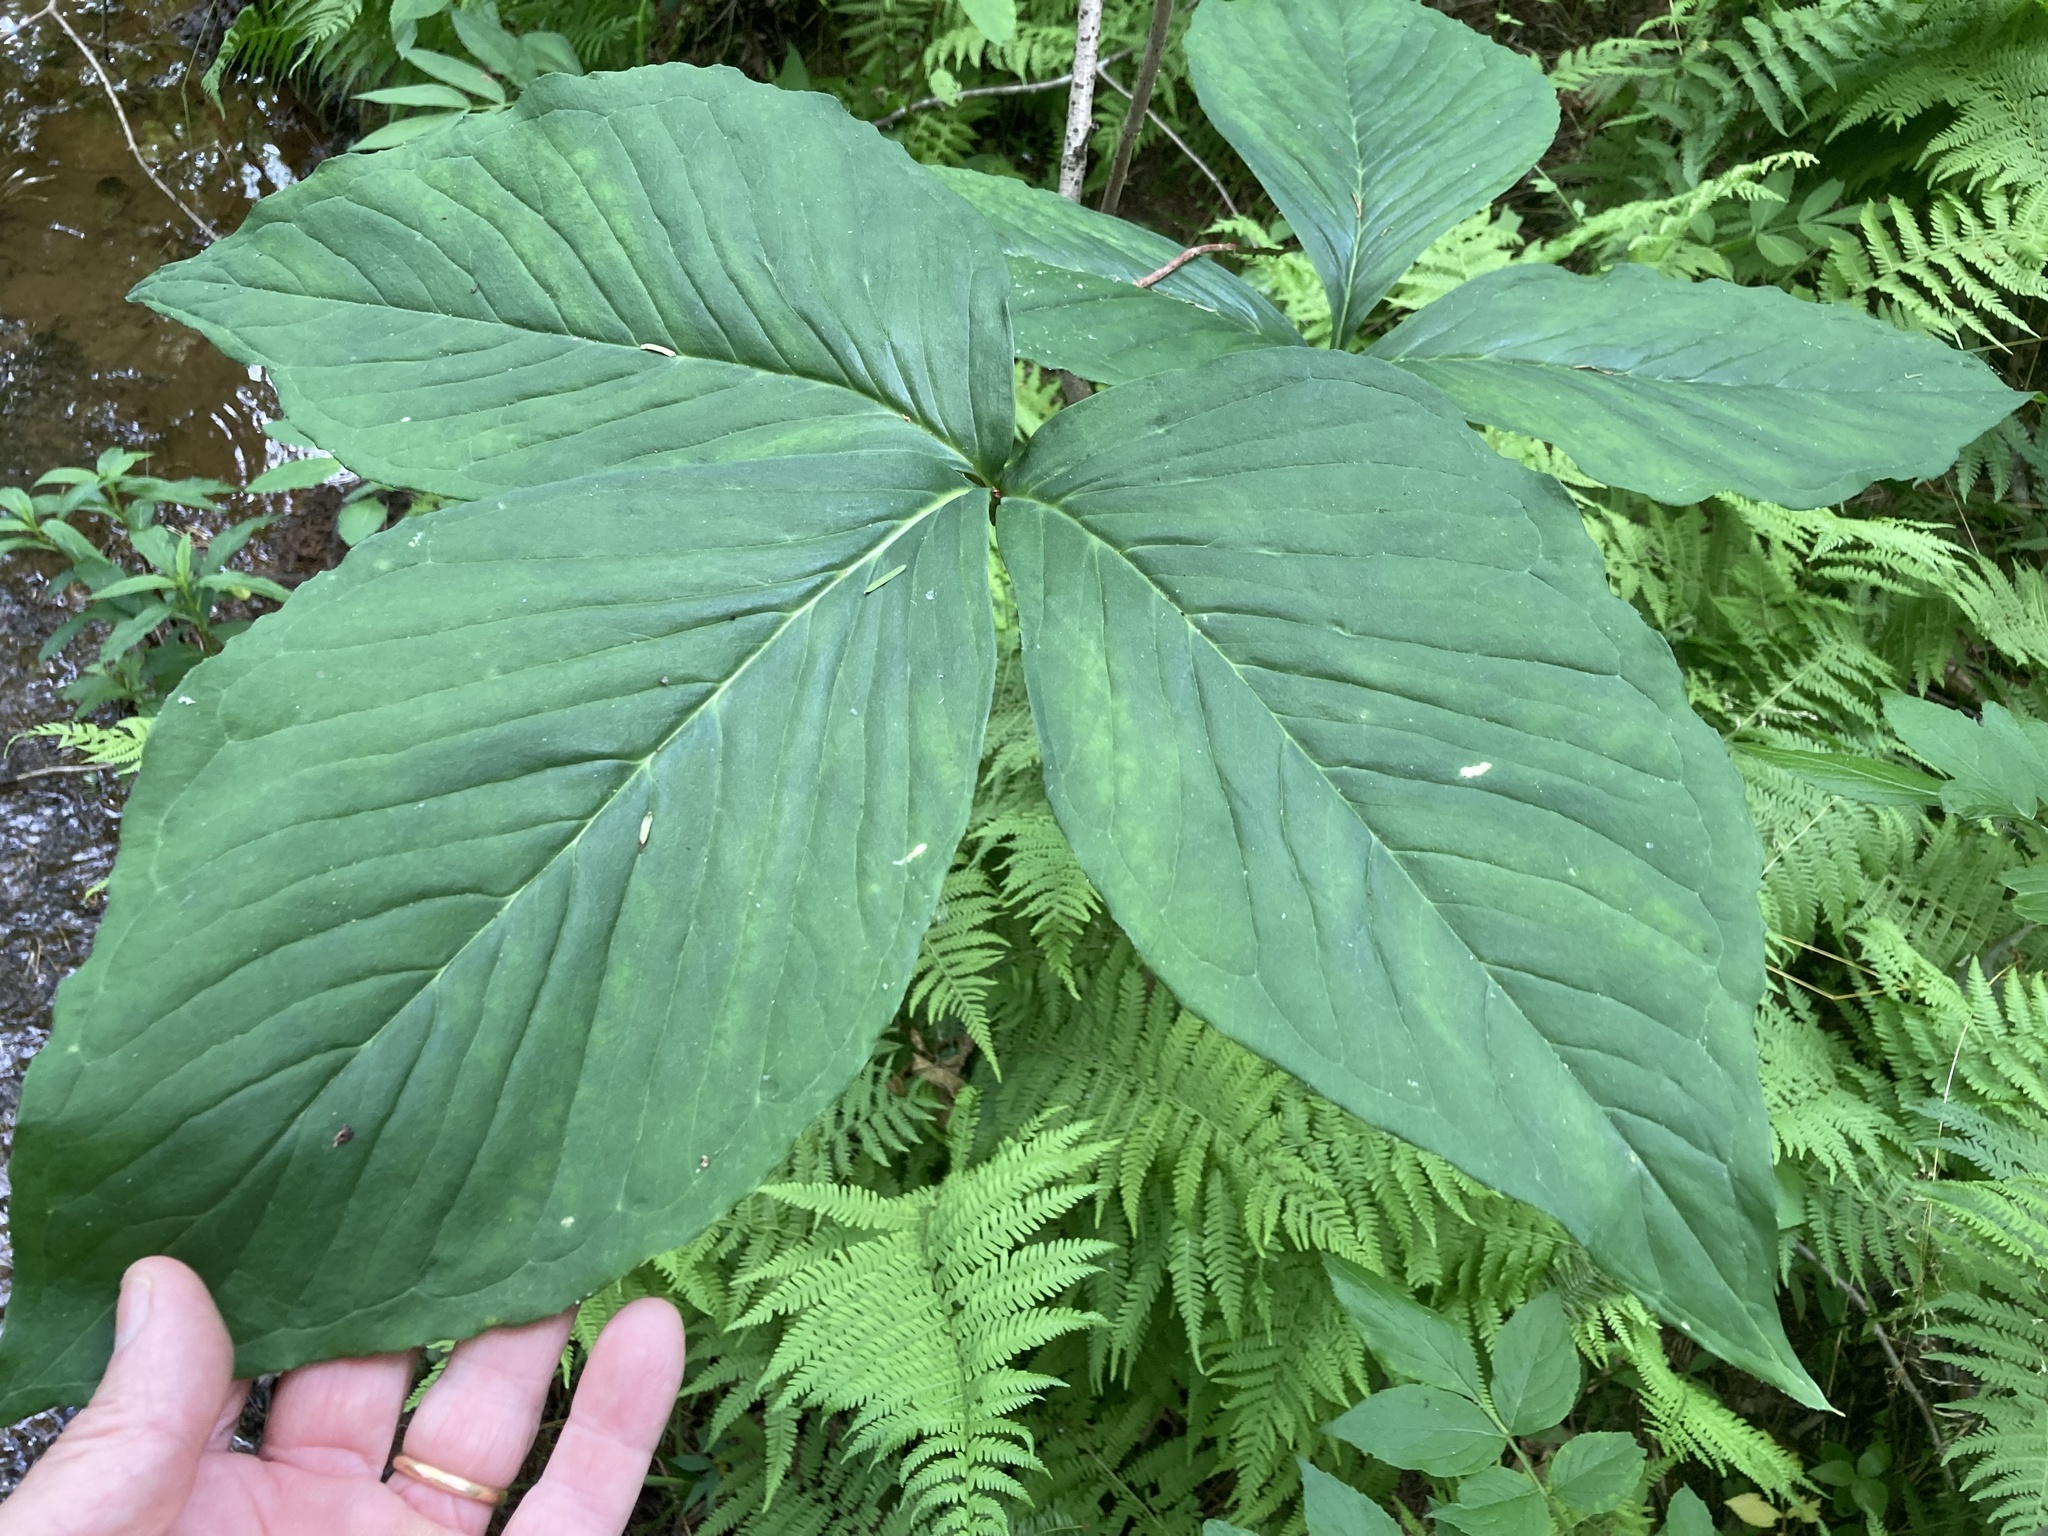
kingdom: Plantae
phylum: Tracheophyta
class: Liliopsida
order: Alismatales
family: Araceae
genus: Arisaema
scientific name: Arisaema triphyllum
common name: Jack-in-the-pulpit
